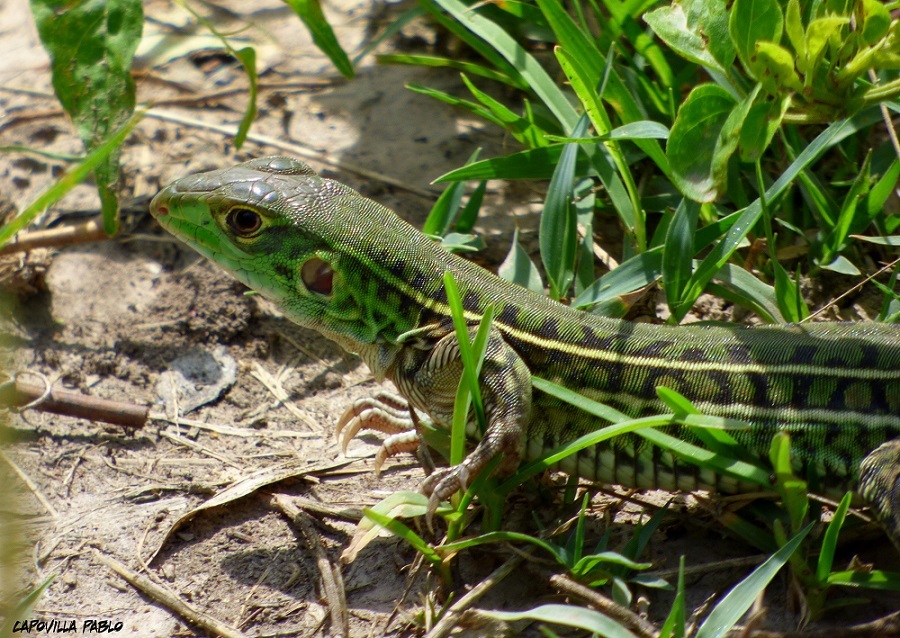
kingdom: Animalia
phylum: Chordata
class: Squamata
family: Teiidae
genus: Teius
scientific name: Teius oculatus
